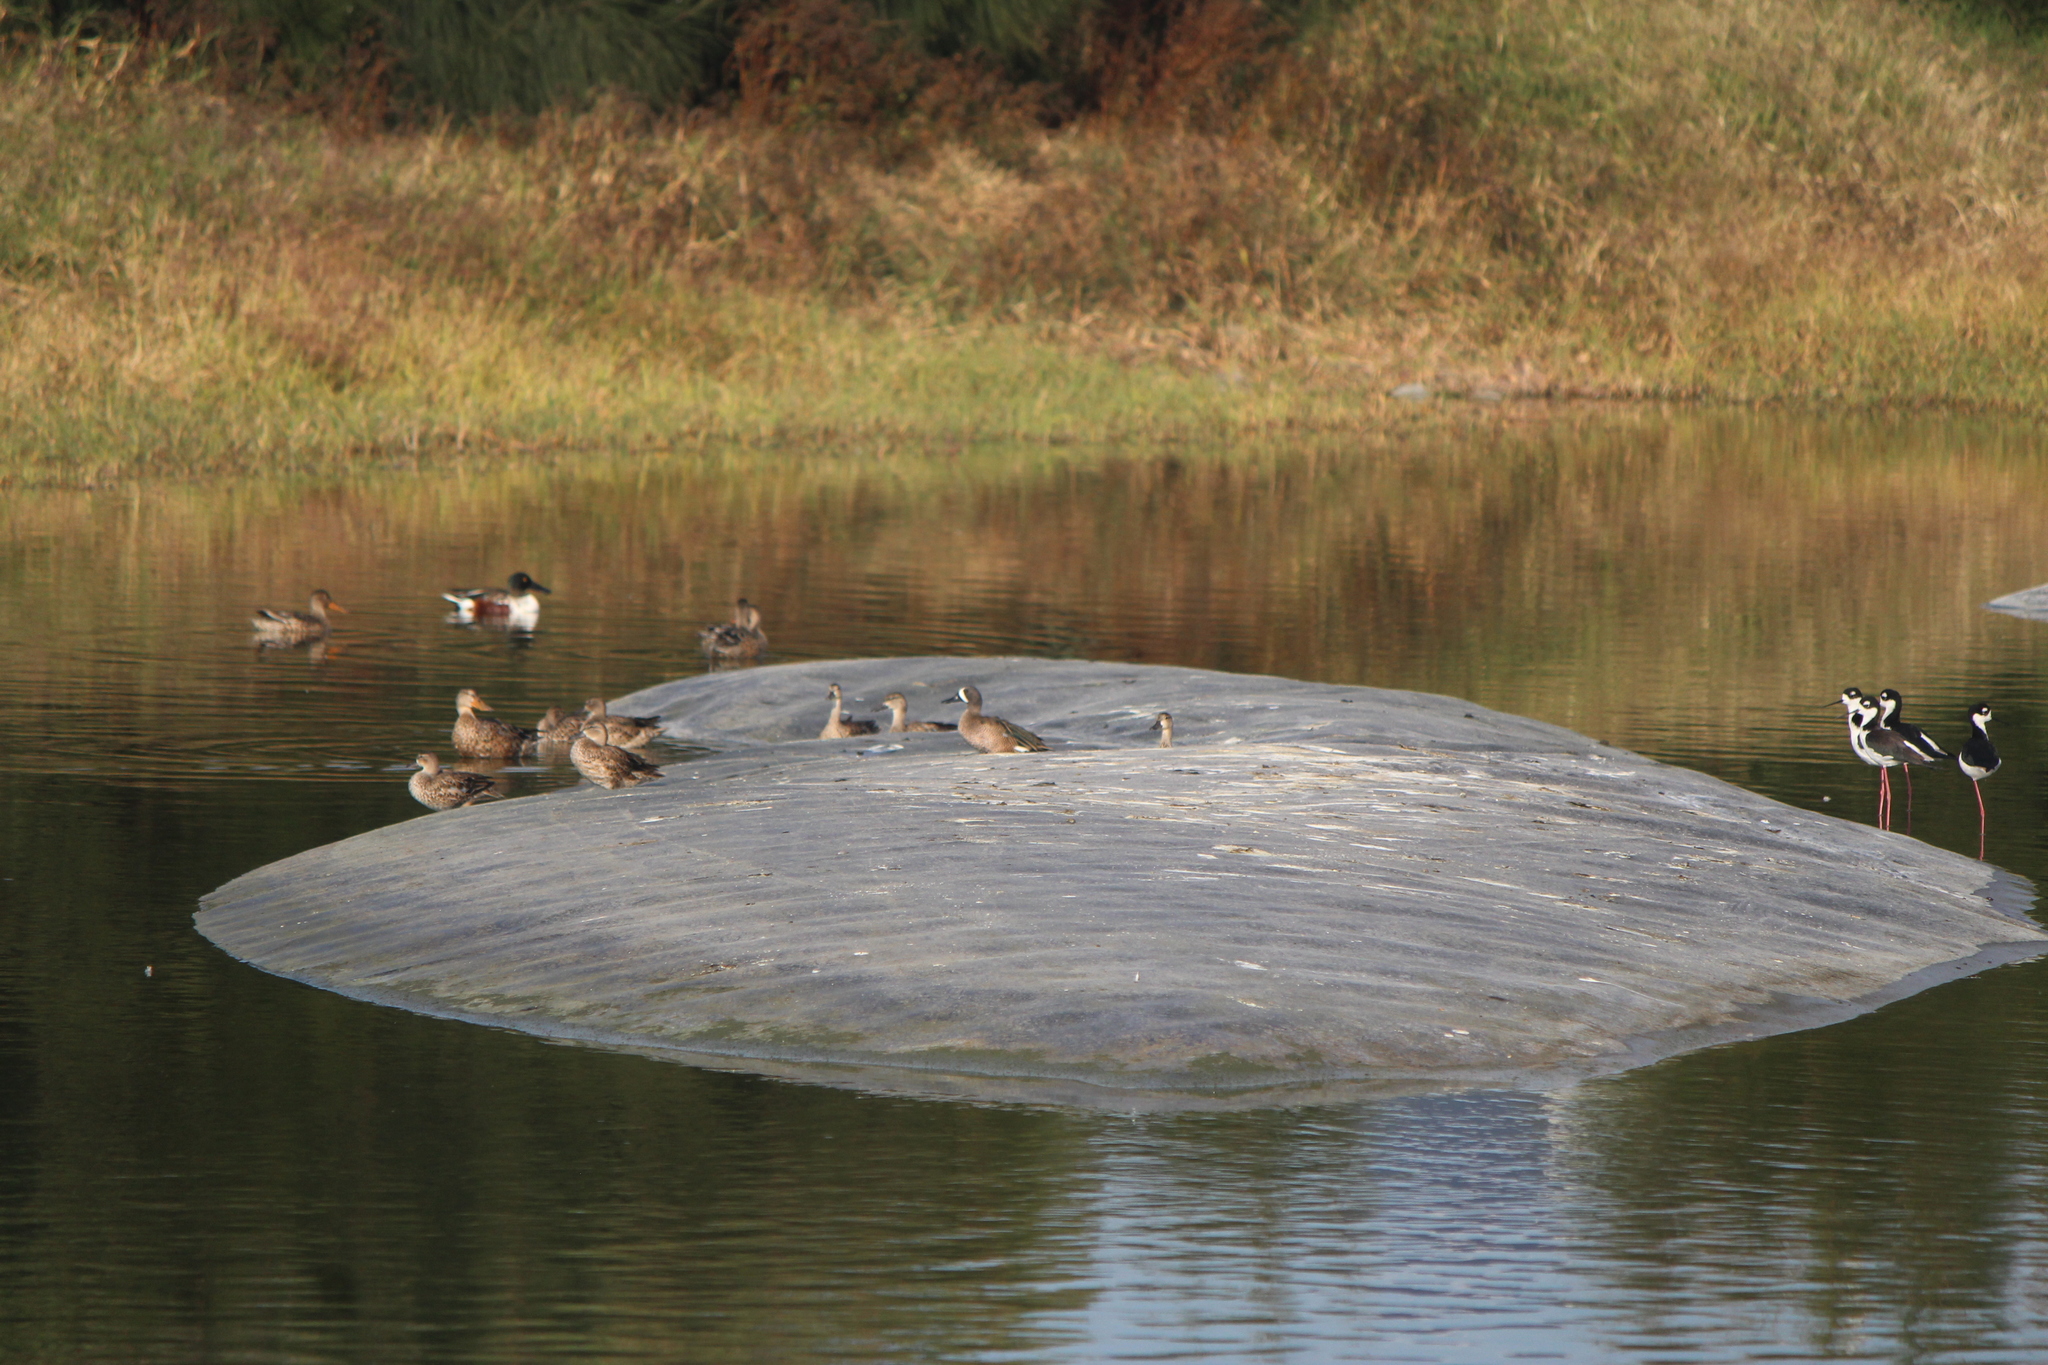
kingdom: Animalia
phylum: Chordata
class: Aves
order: Anseriformes
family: Anatidae
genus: Spatula
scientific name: Spatula discors
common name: Blue-winged teal
